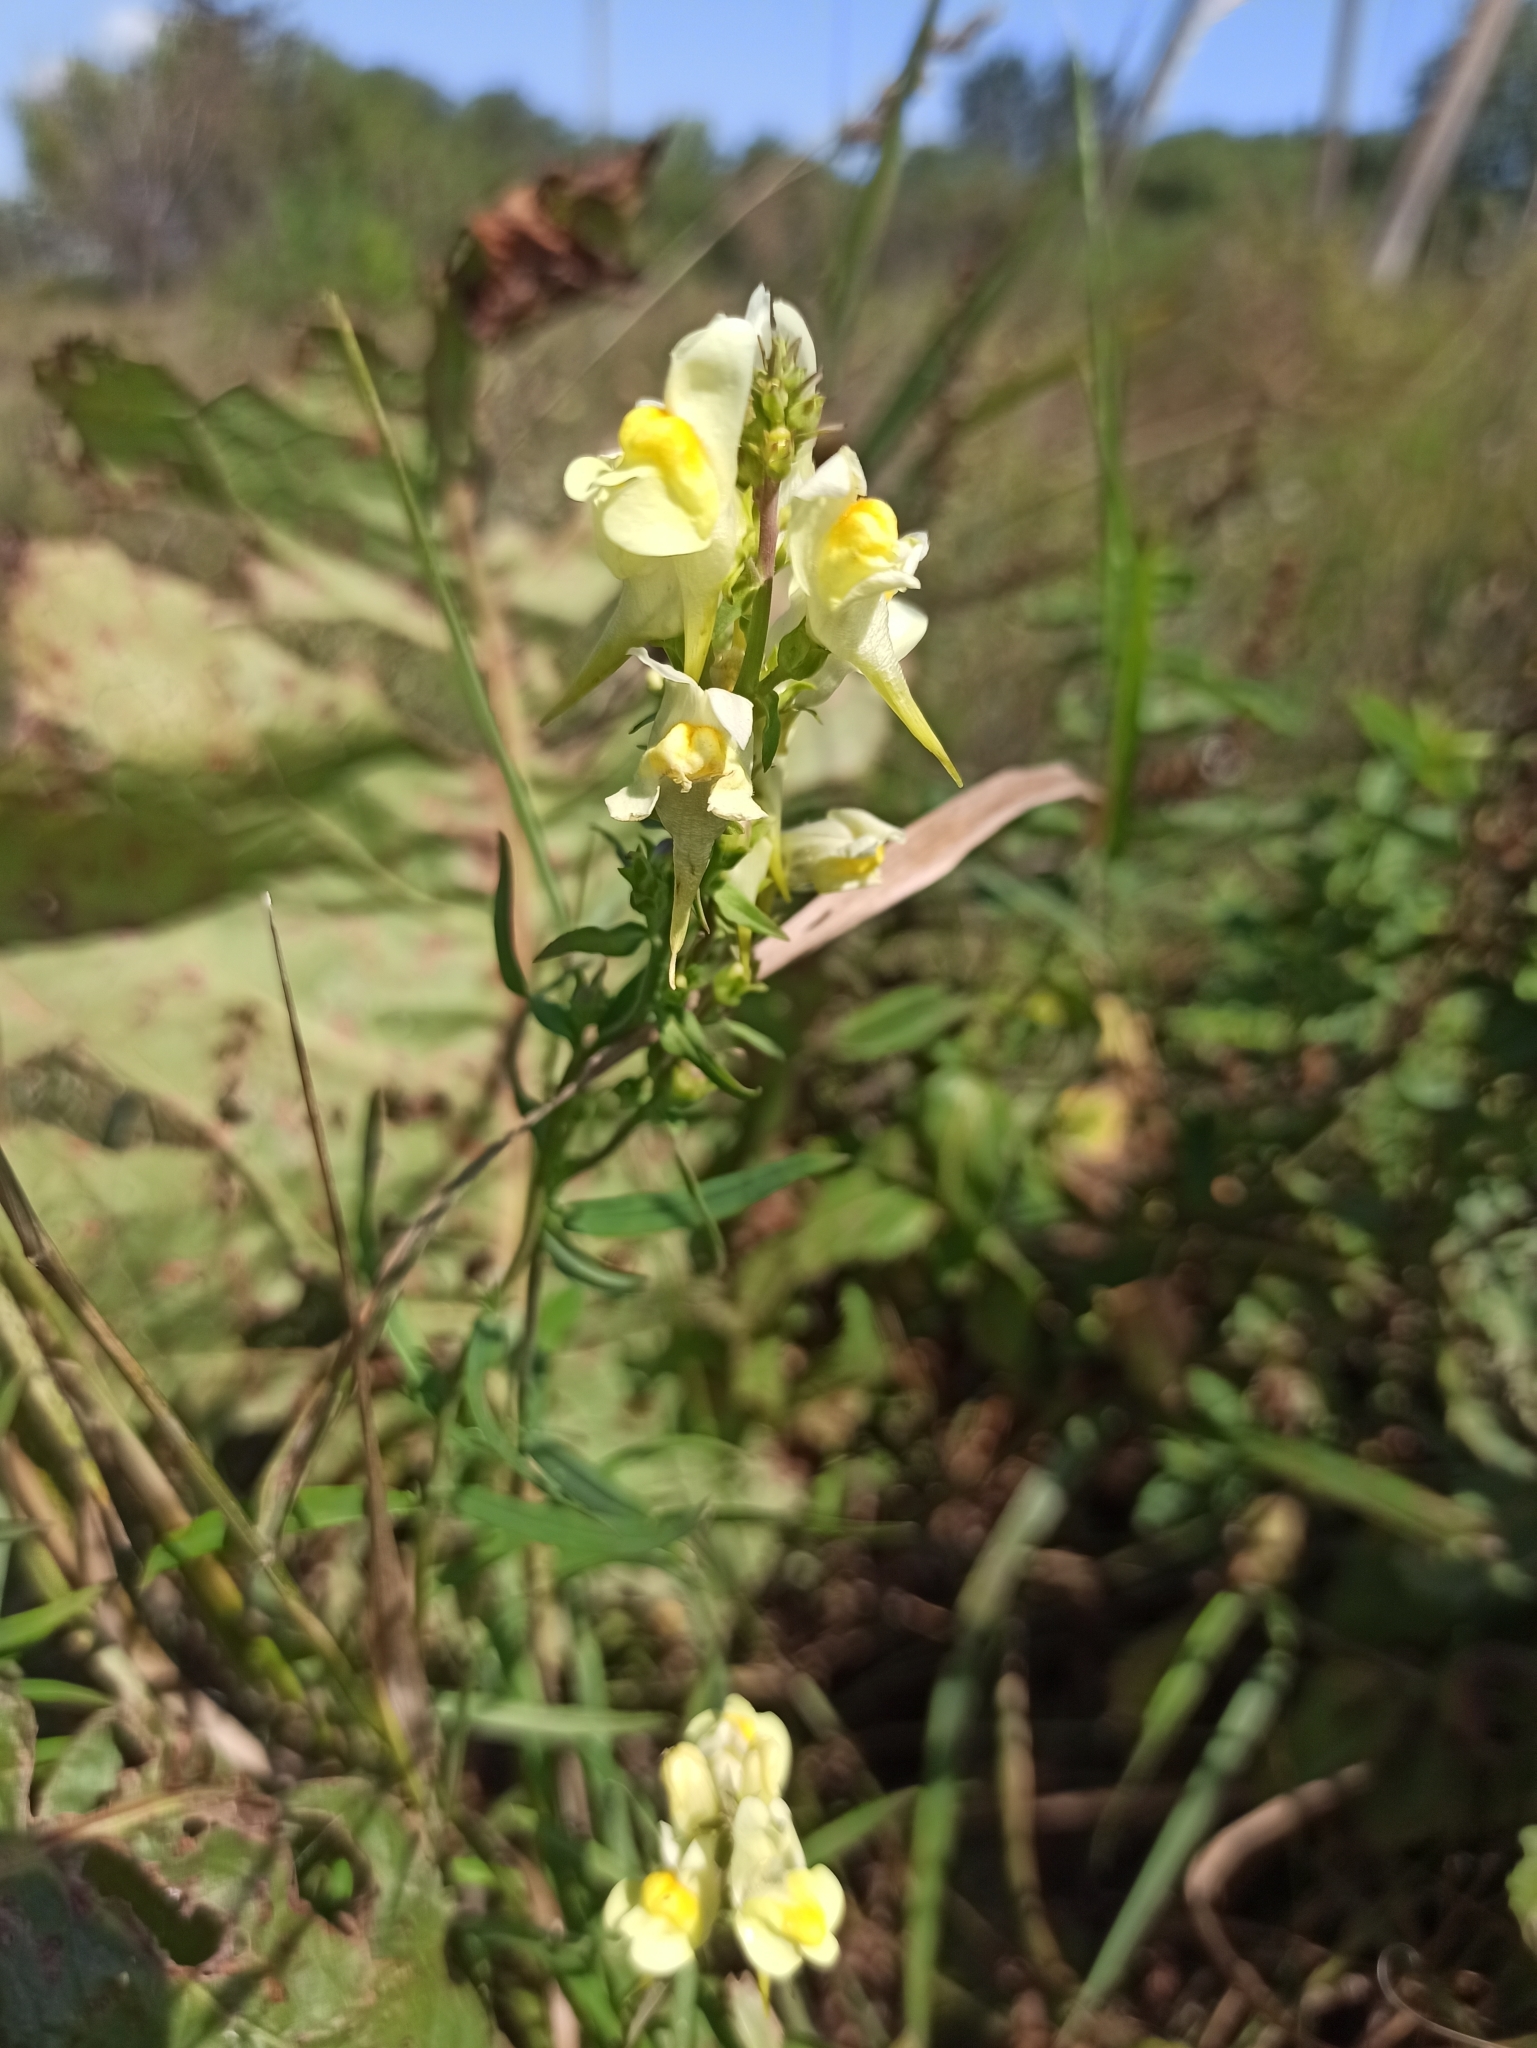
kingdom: Plantae
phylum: Tracheophyta
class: Magnoliopsida
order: Lamiales
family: Plantaginaceae
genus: Linaria
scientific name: Linaria vulgaris
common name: Butter and eggs
